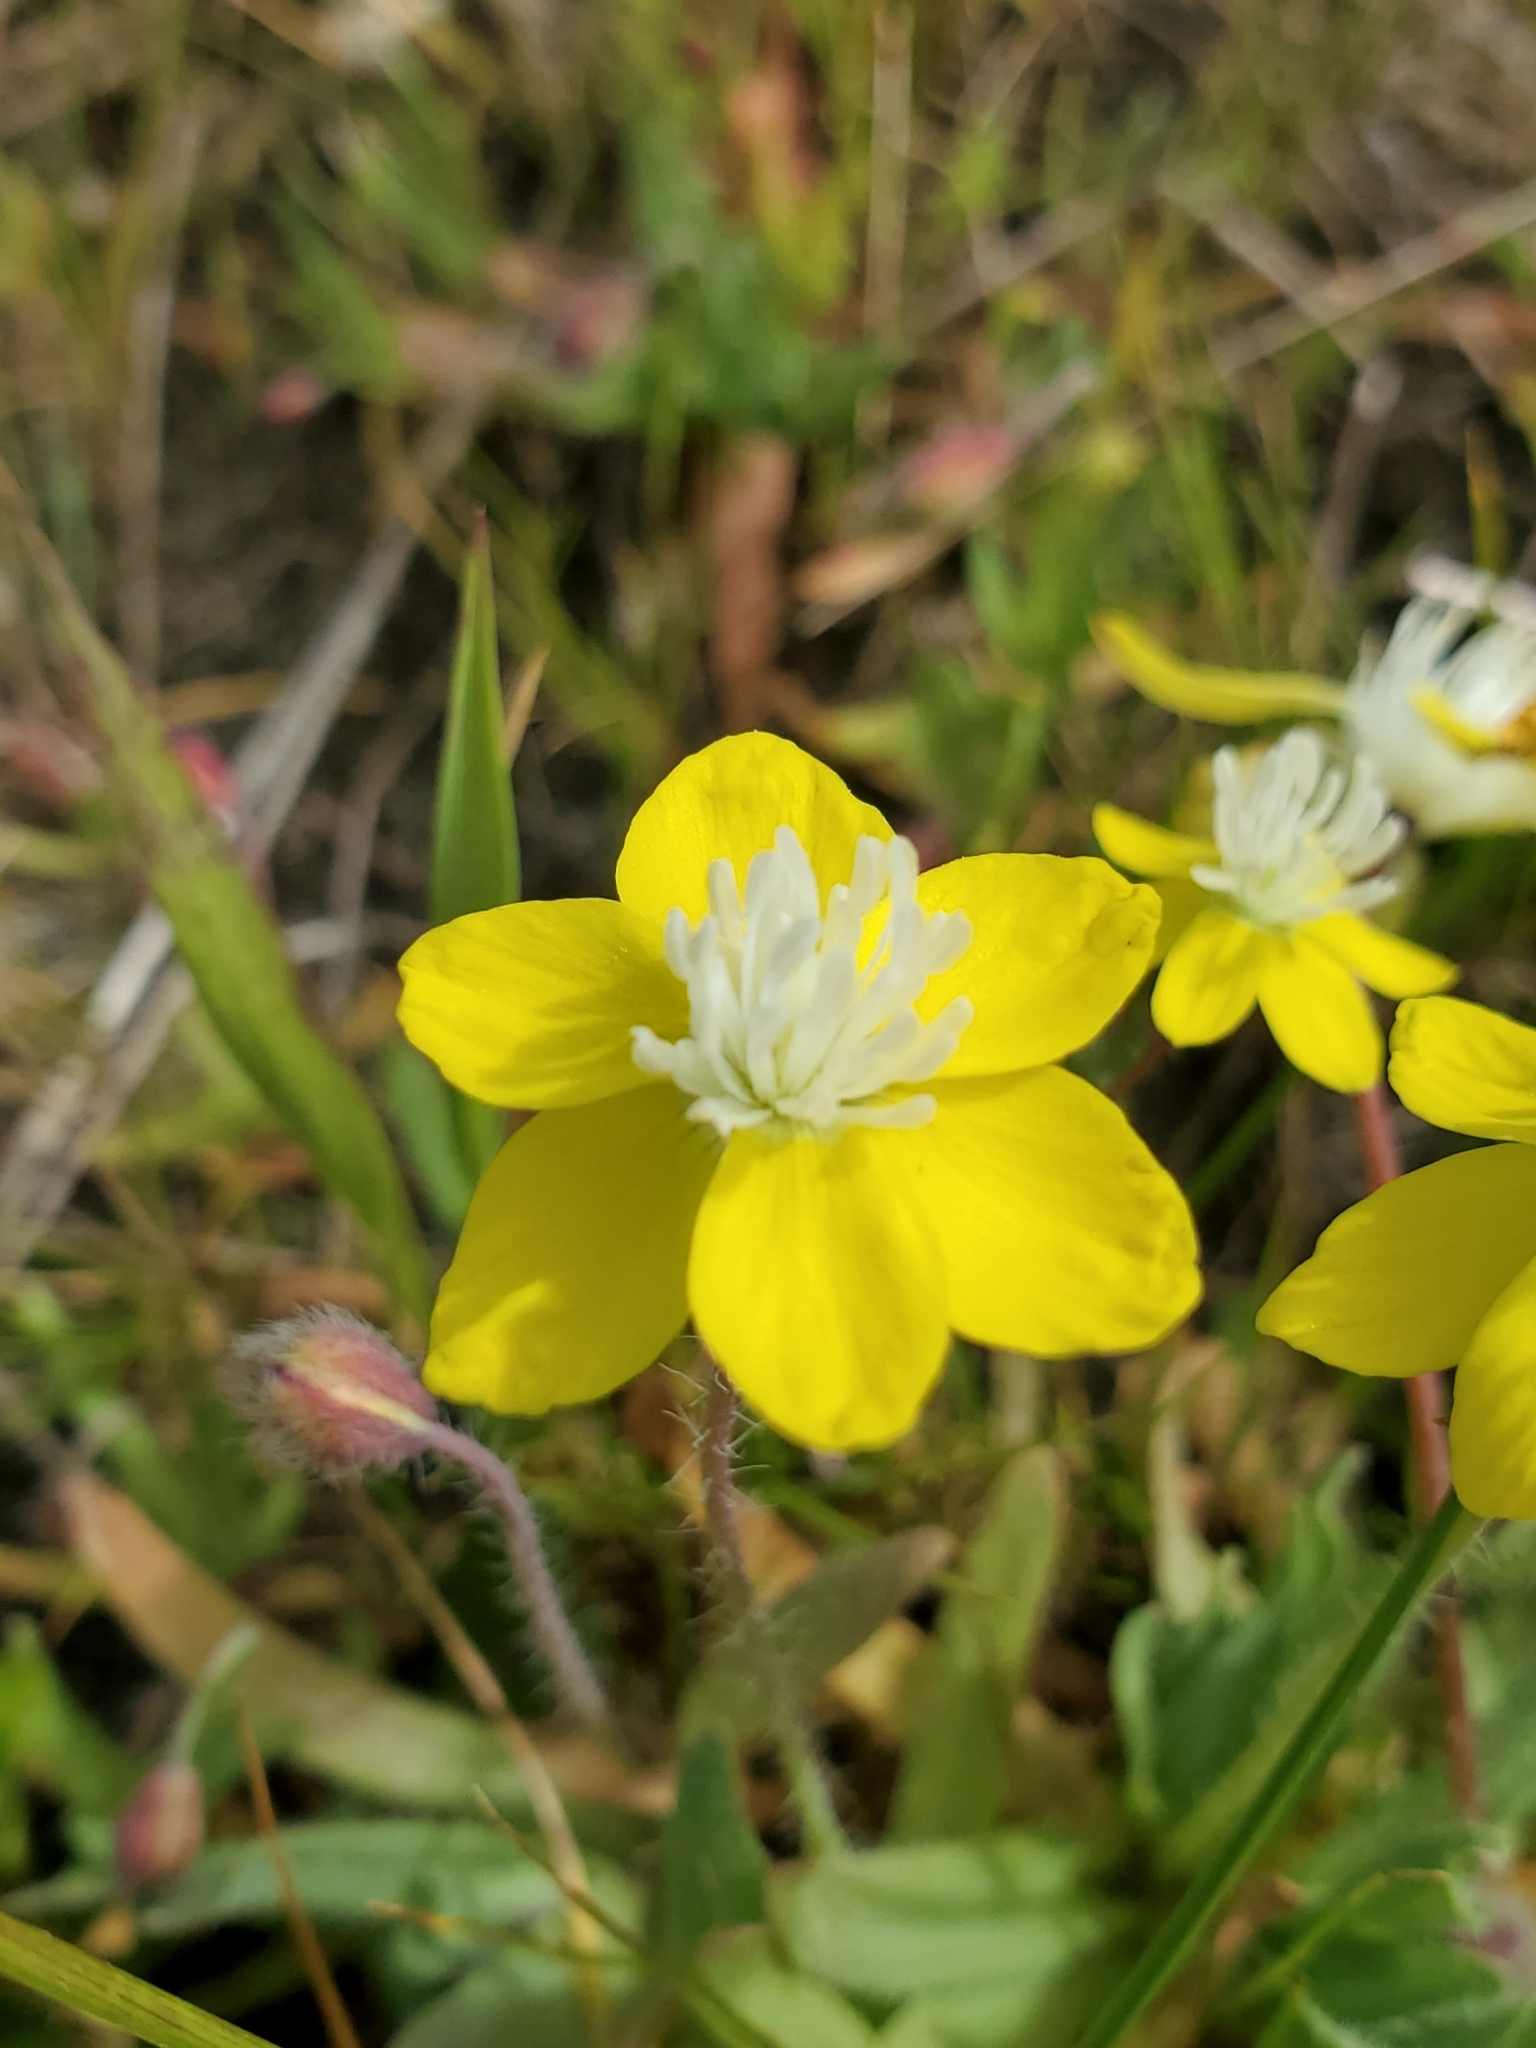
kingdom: Plantae
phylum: Tracheophyta
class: Magnoliopsida
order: Ranunculales
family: Papaveraceae
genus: Platystemon
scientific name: Platystemon californicus
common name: Cream-cups
